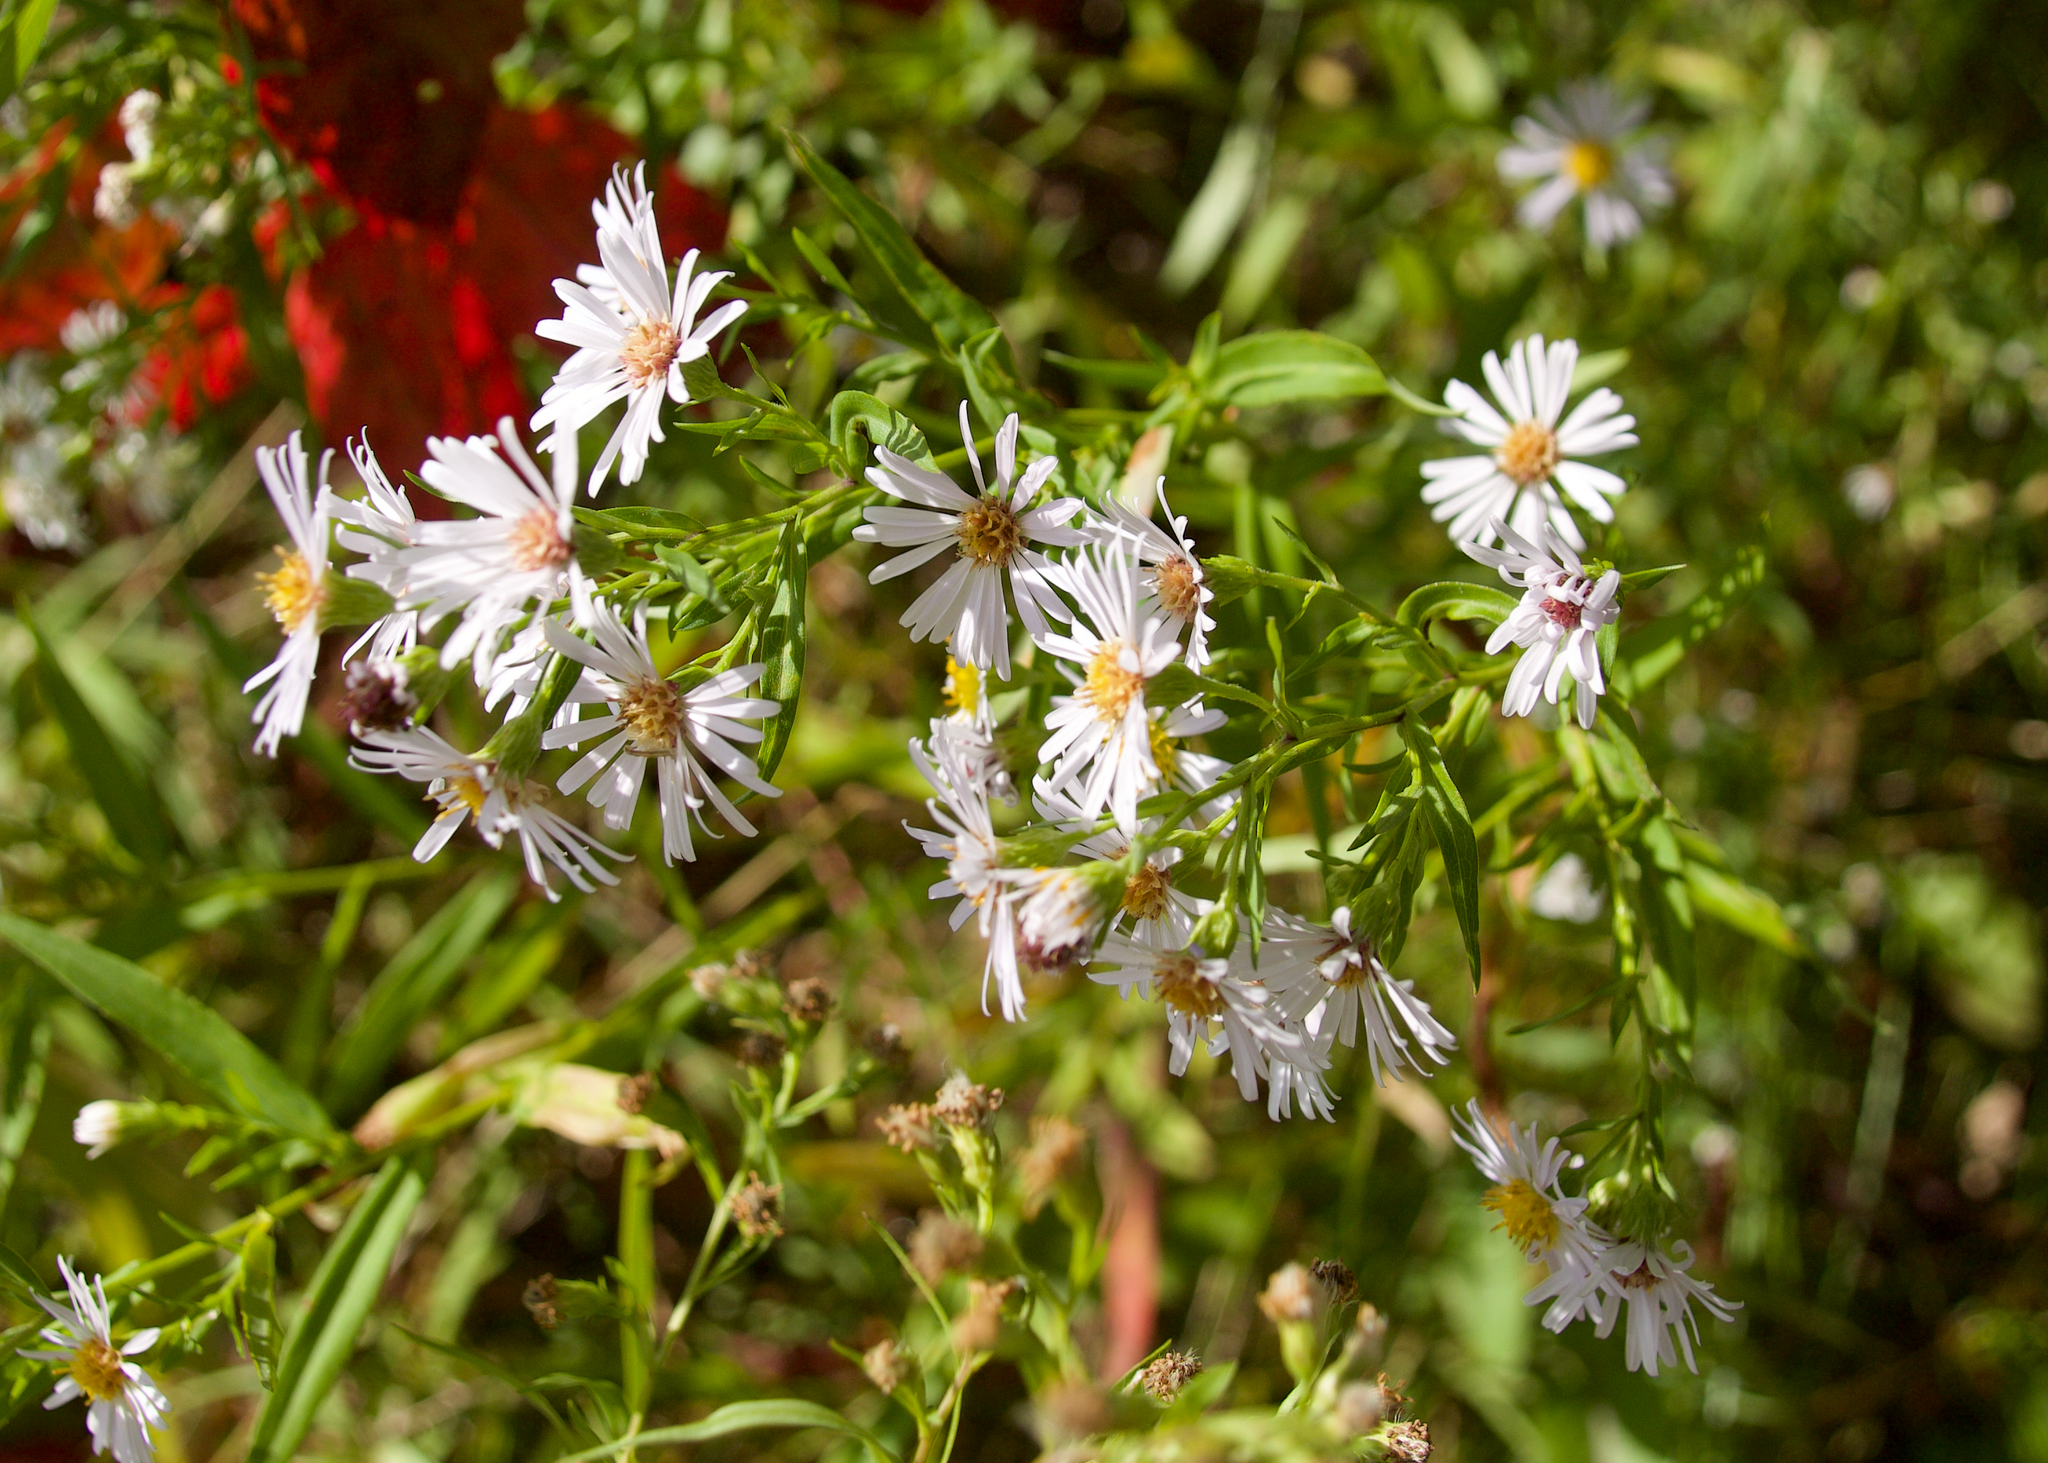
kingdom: Plantae
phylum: Tracheophyta
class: Magnoliopsida
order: Asterales
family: Asteraceae
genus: Symphyotrichum
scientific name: Symphyotrichum lanceolatum
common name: Panicled aster
